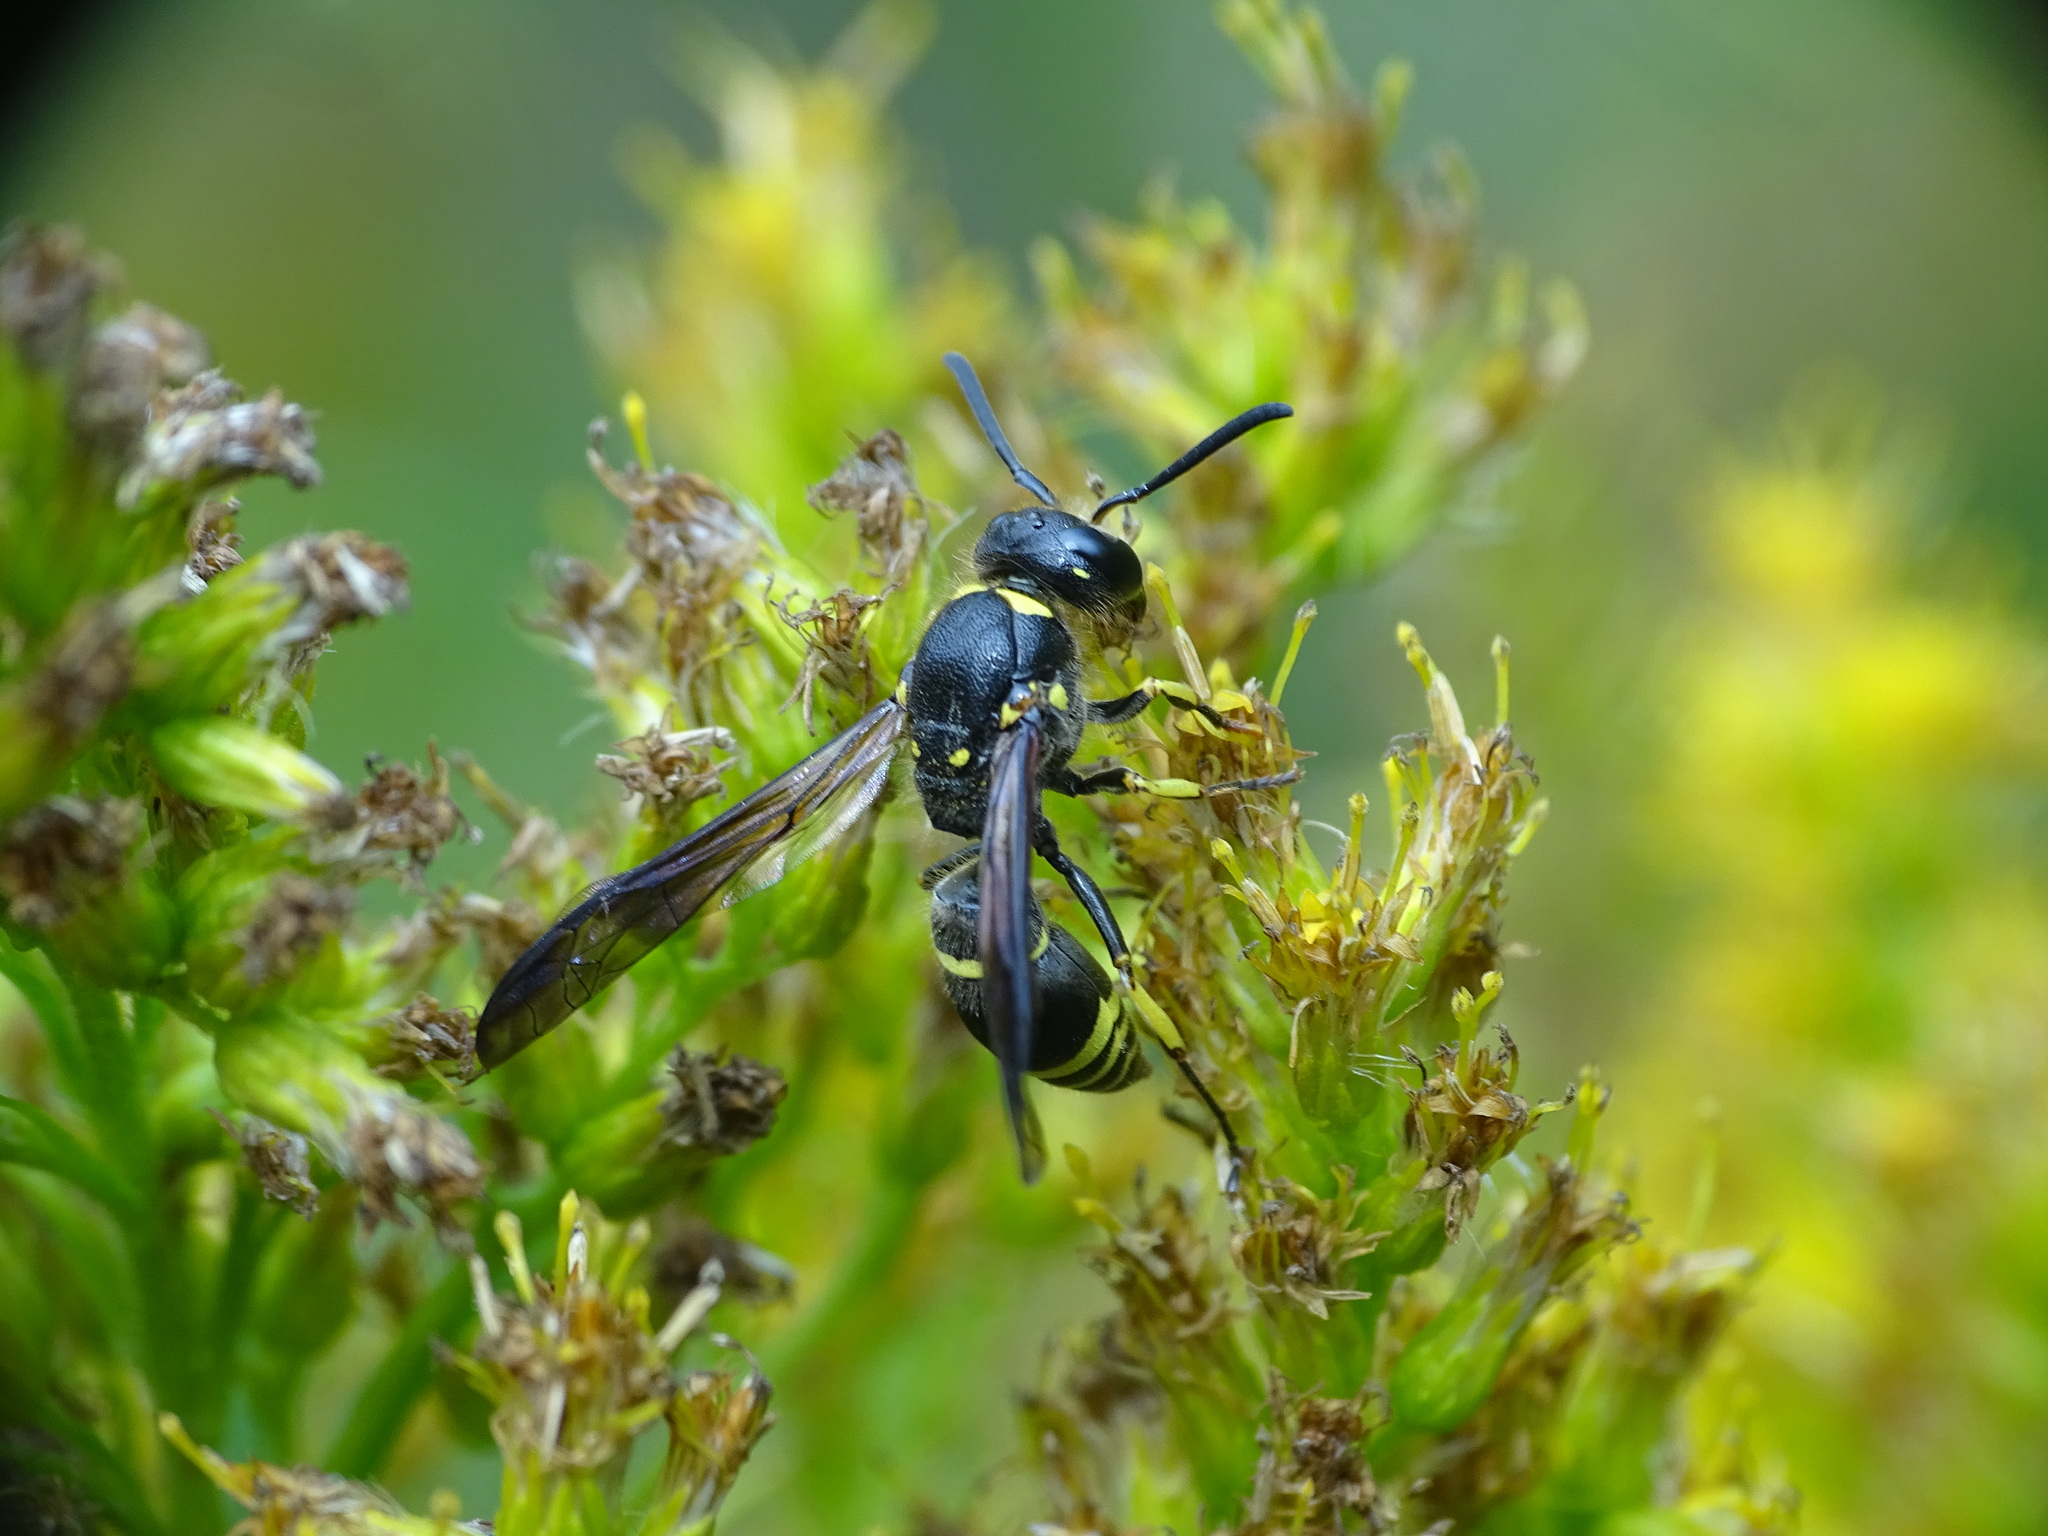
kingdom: Animalia
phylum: Arthropoda
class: Insecta
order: Hymenoptera
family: Vespidae
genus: Ancistrocerus
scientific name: Ancistrocerus
